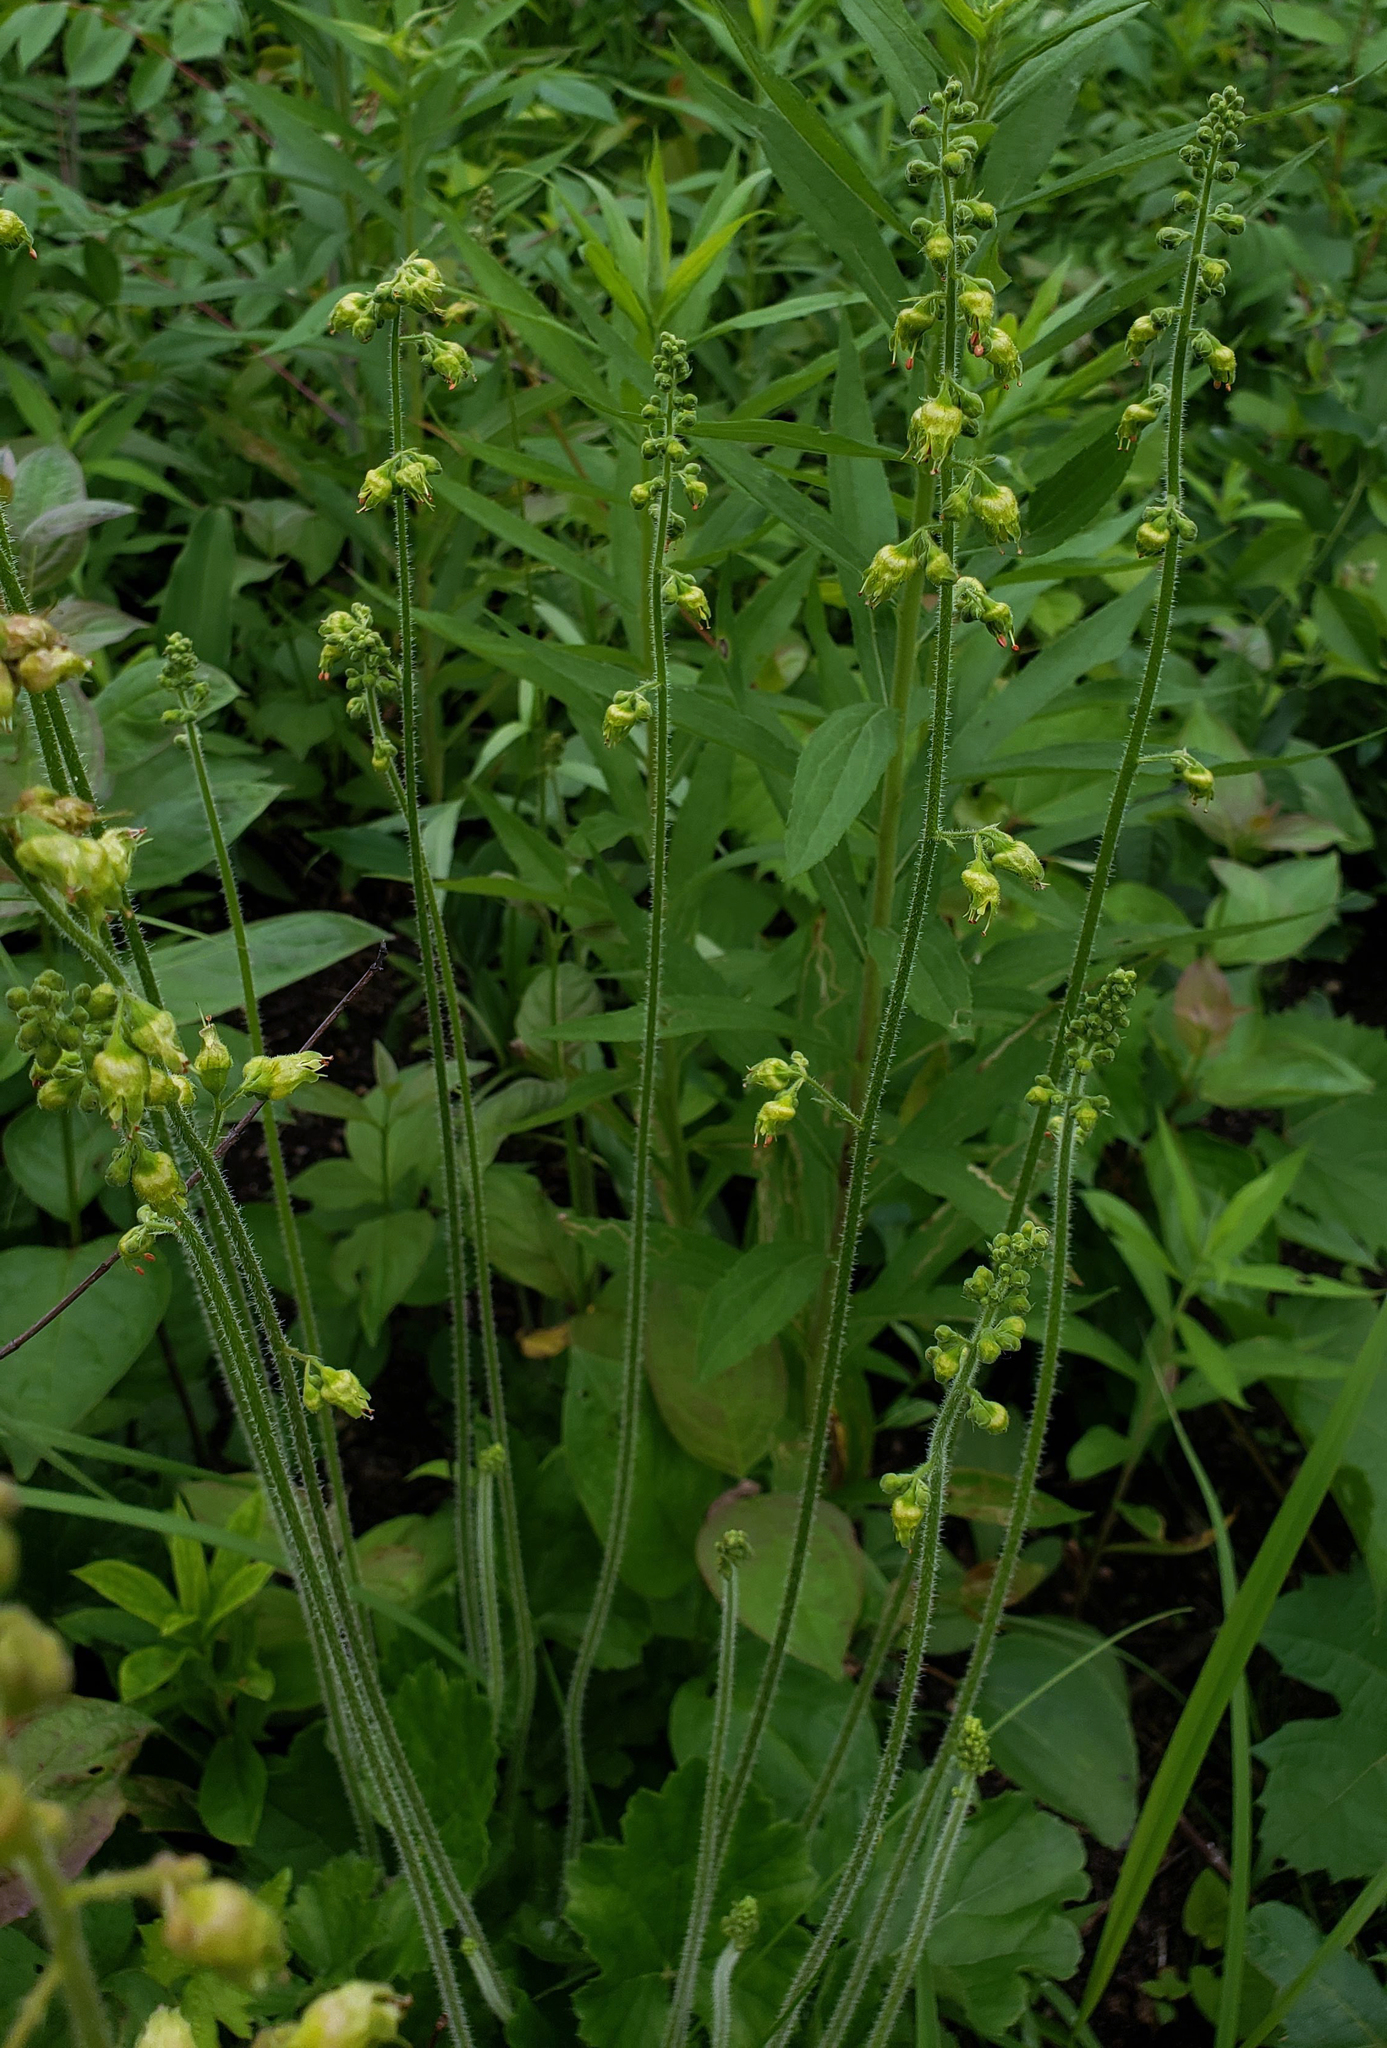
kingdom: Plantae
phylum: Tracheophyta
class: Magnoliopsida
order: Saxifragales
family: Saxifragaceae
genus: Heuchera
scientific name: Heuchera richardsonii
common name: Richardson's alumroot
